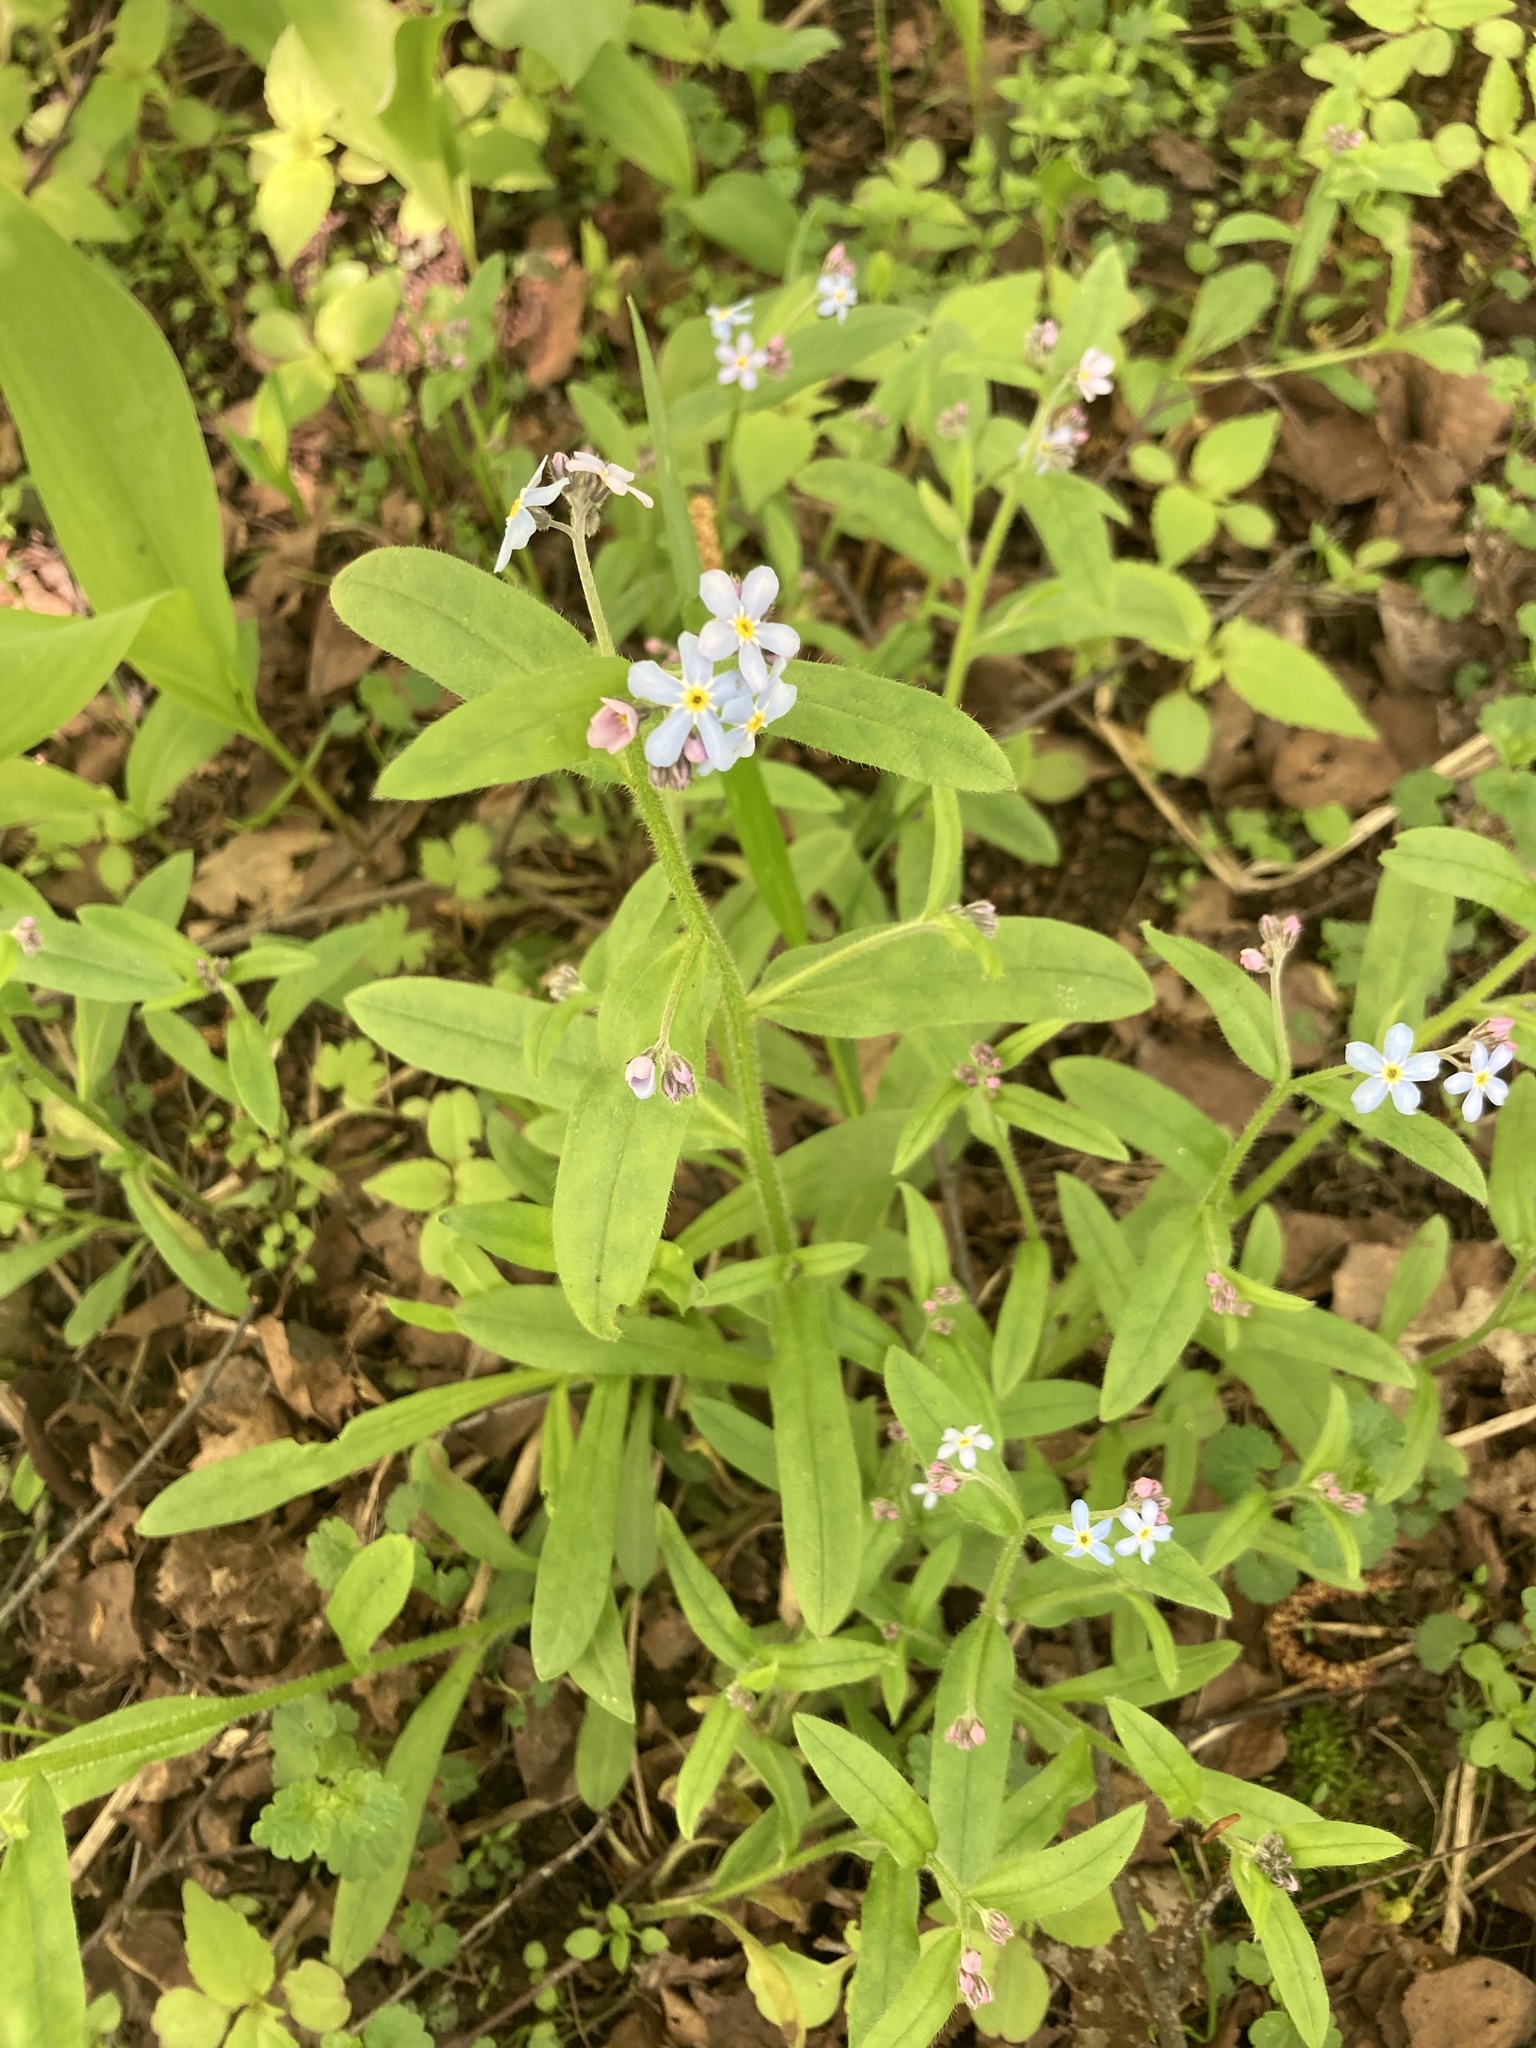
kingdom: Plantae
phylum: Tracheophyta
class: Magnoliopsida
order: Boraginales
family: Boraginaceae
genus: Myosotis
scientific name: Myosotis sylvatica
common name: Wood forget-me-not
